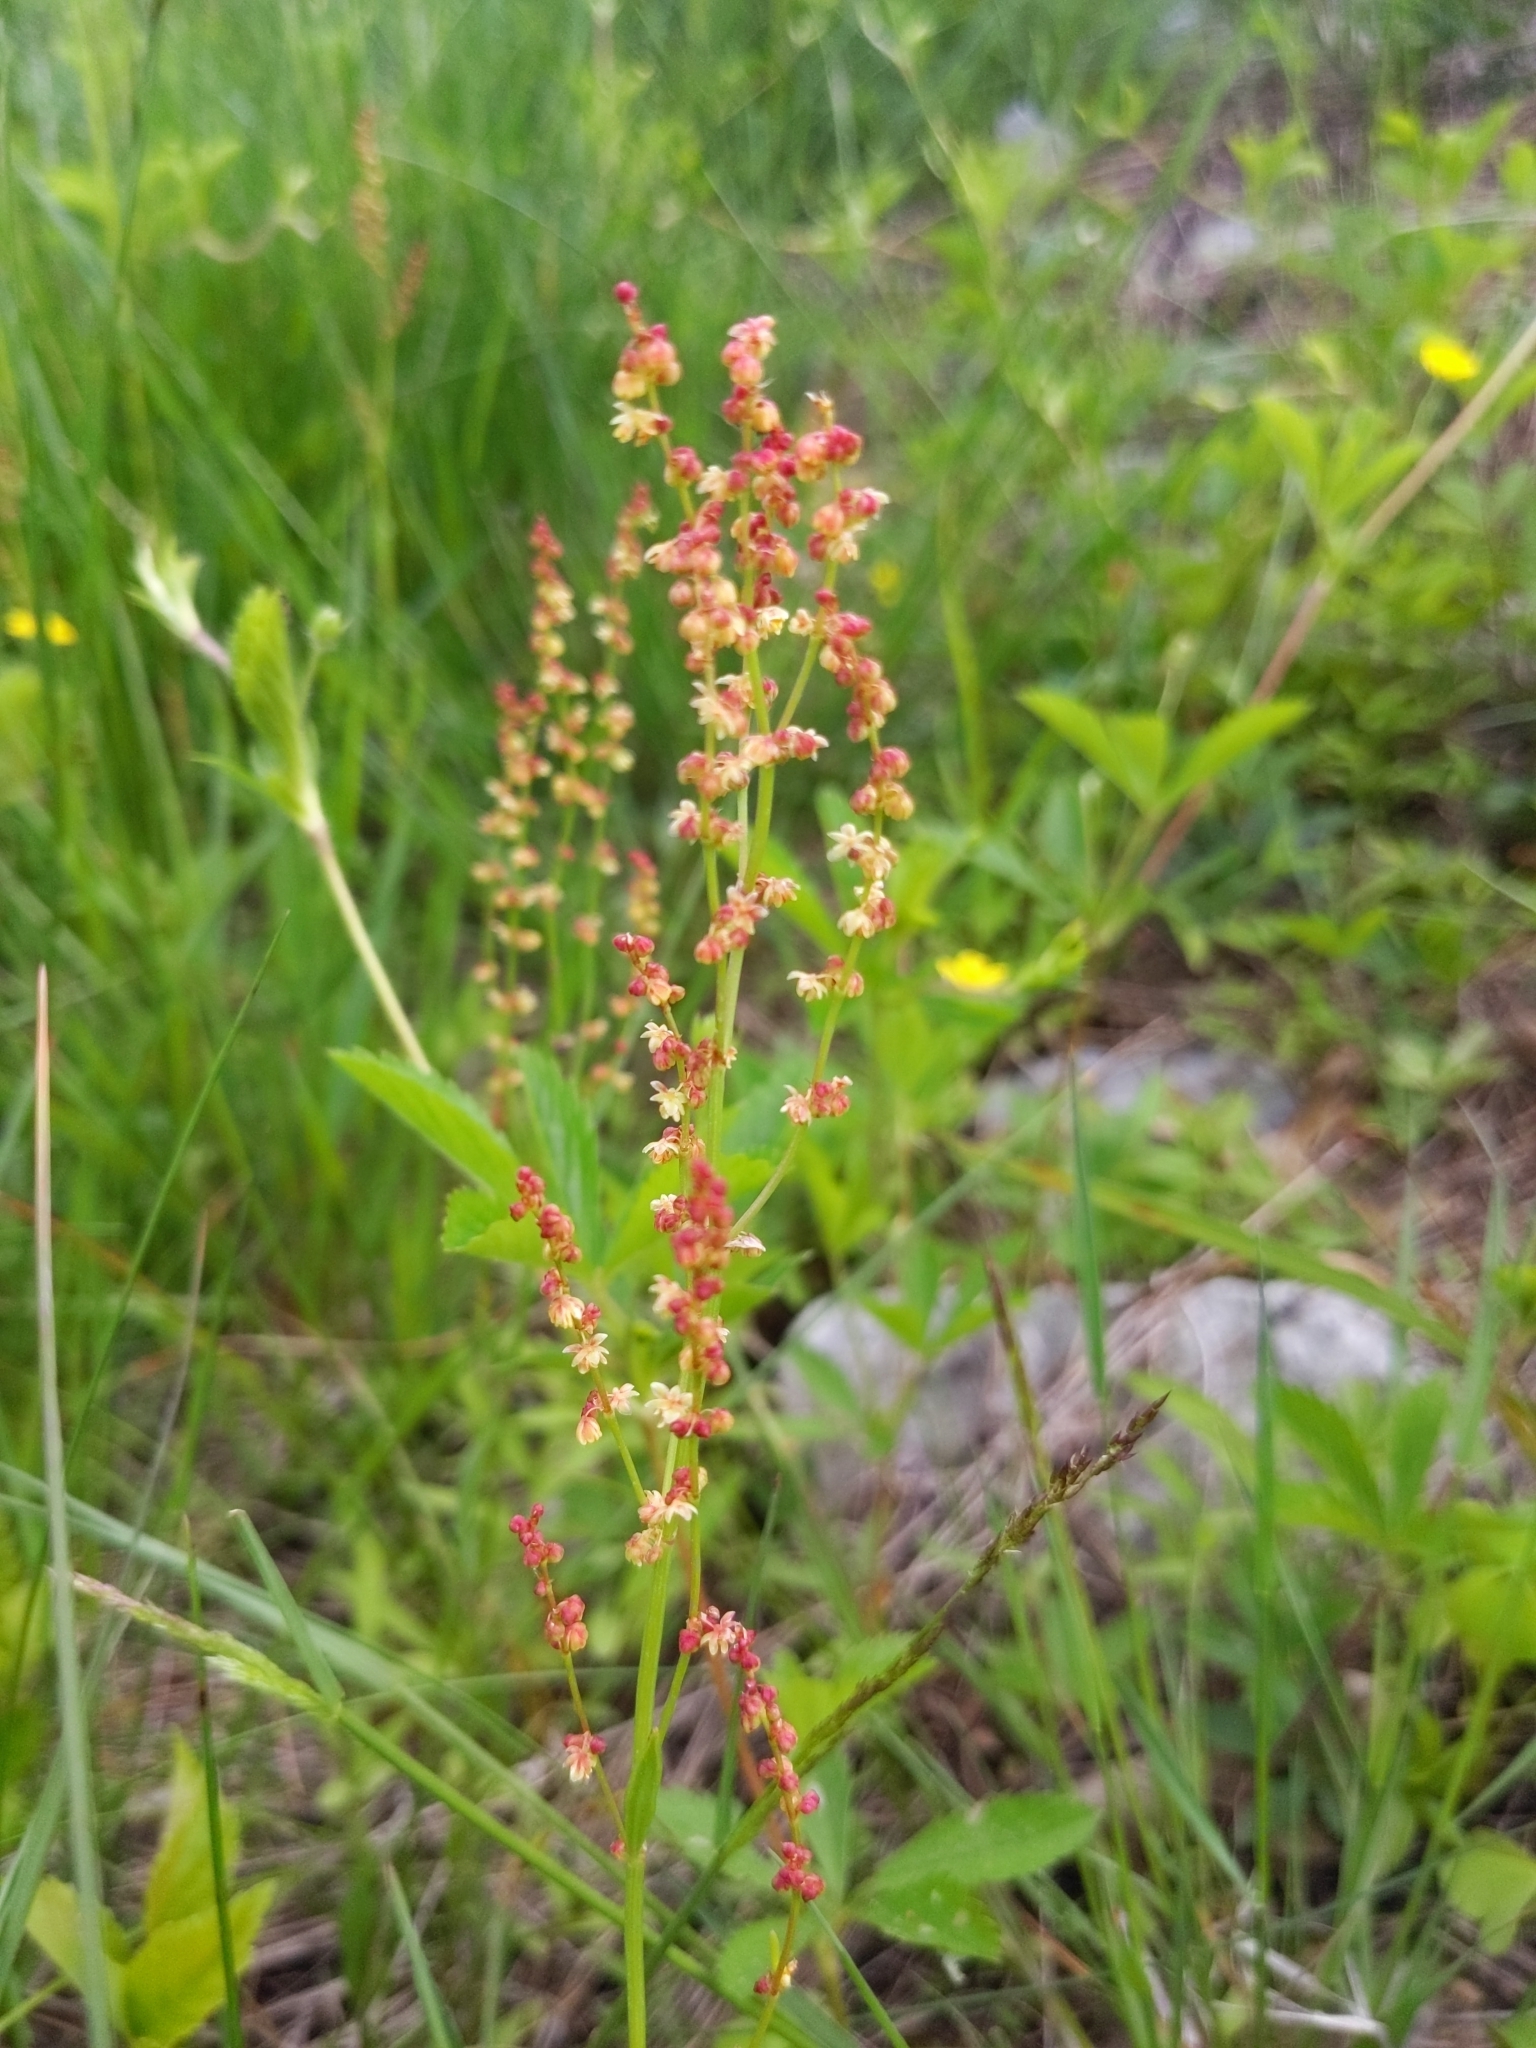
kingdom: Plantae
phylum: Tracheophyta
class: Magnoliopsida
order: Caryophyllales
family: Polygonaceae
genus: Rumex
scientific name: Rumex acetosella
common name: Common sheep sorrel
